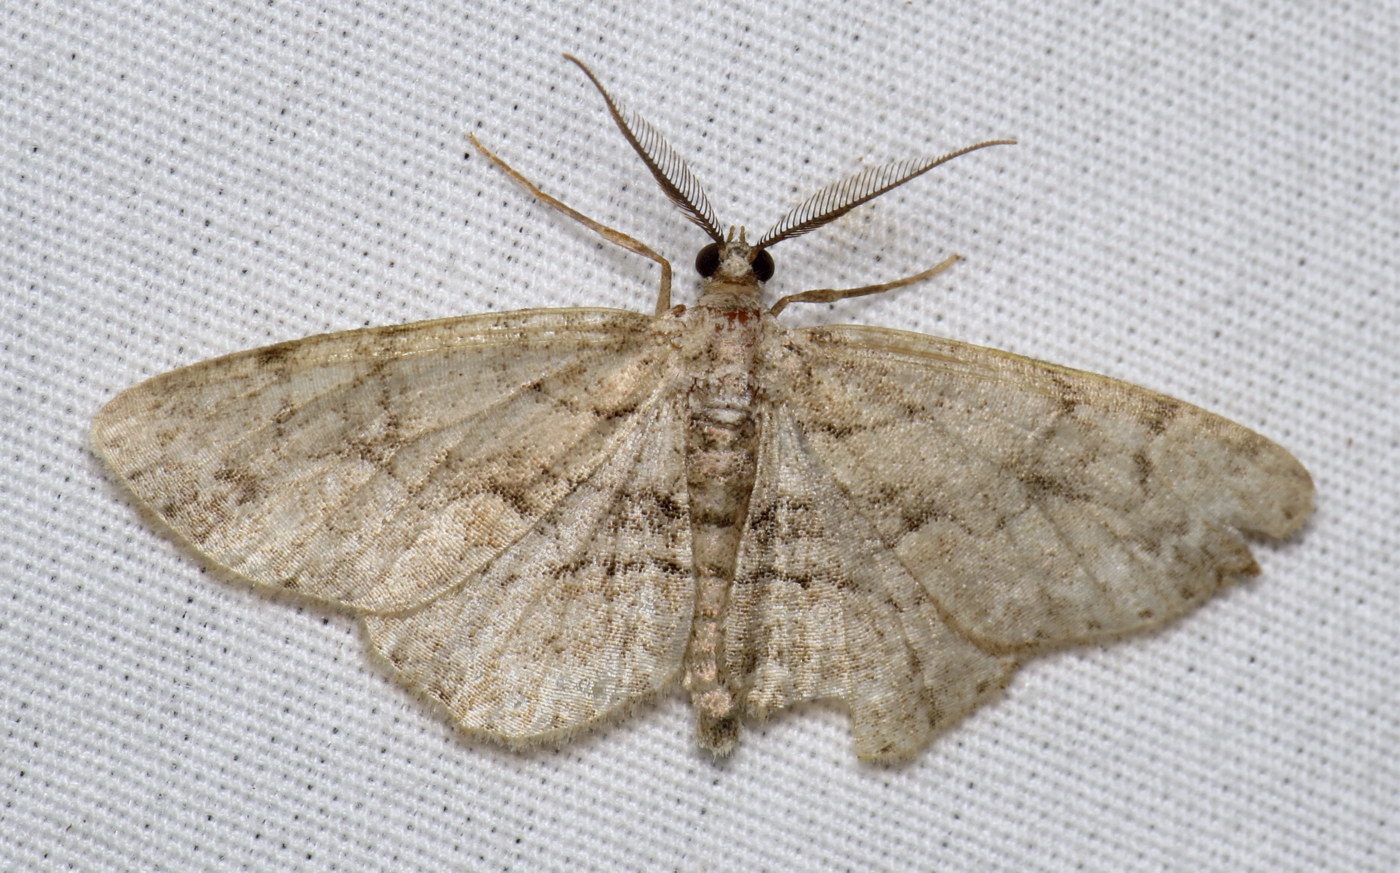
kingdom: Animalia
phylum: Arthropoda
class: Insecta
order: Lepidoptera
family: Geometridae
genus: Iridopsis
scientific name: Iridopsis ephyraria
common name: Pale-winged gray
